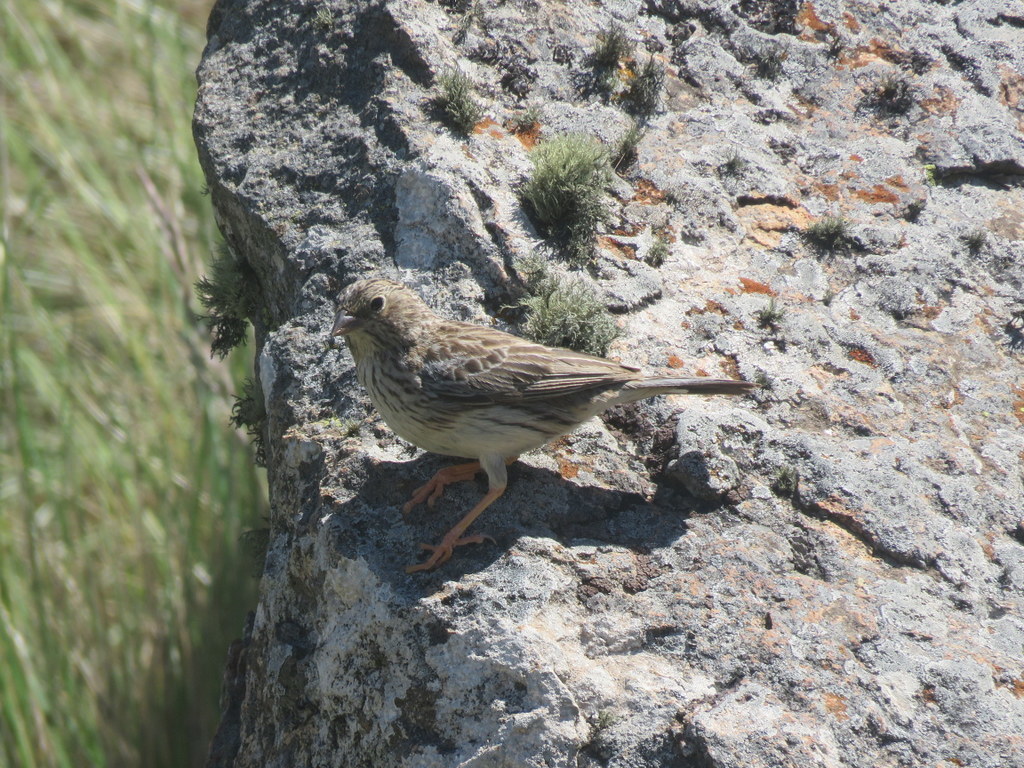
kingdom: Animalia
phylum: Chordata
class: Aves
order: Passeriformes
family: Thraupidae
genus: Porphyrospiza
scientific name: Porphyrospiza alaudina
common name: Band-tailed sierra finch
